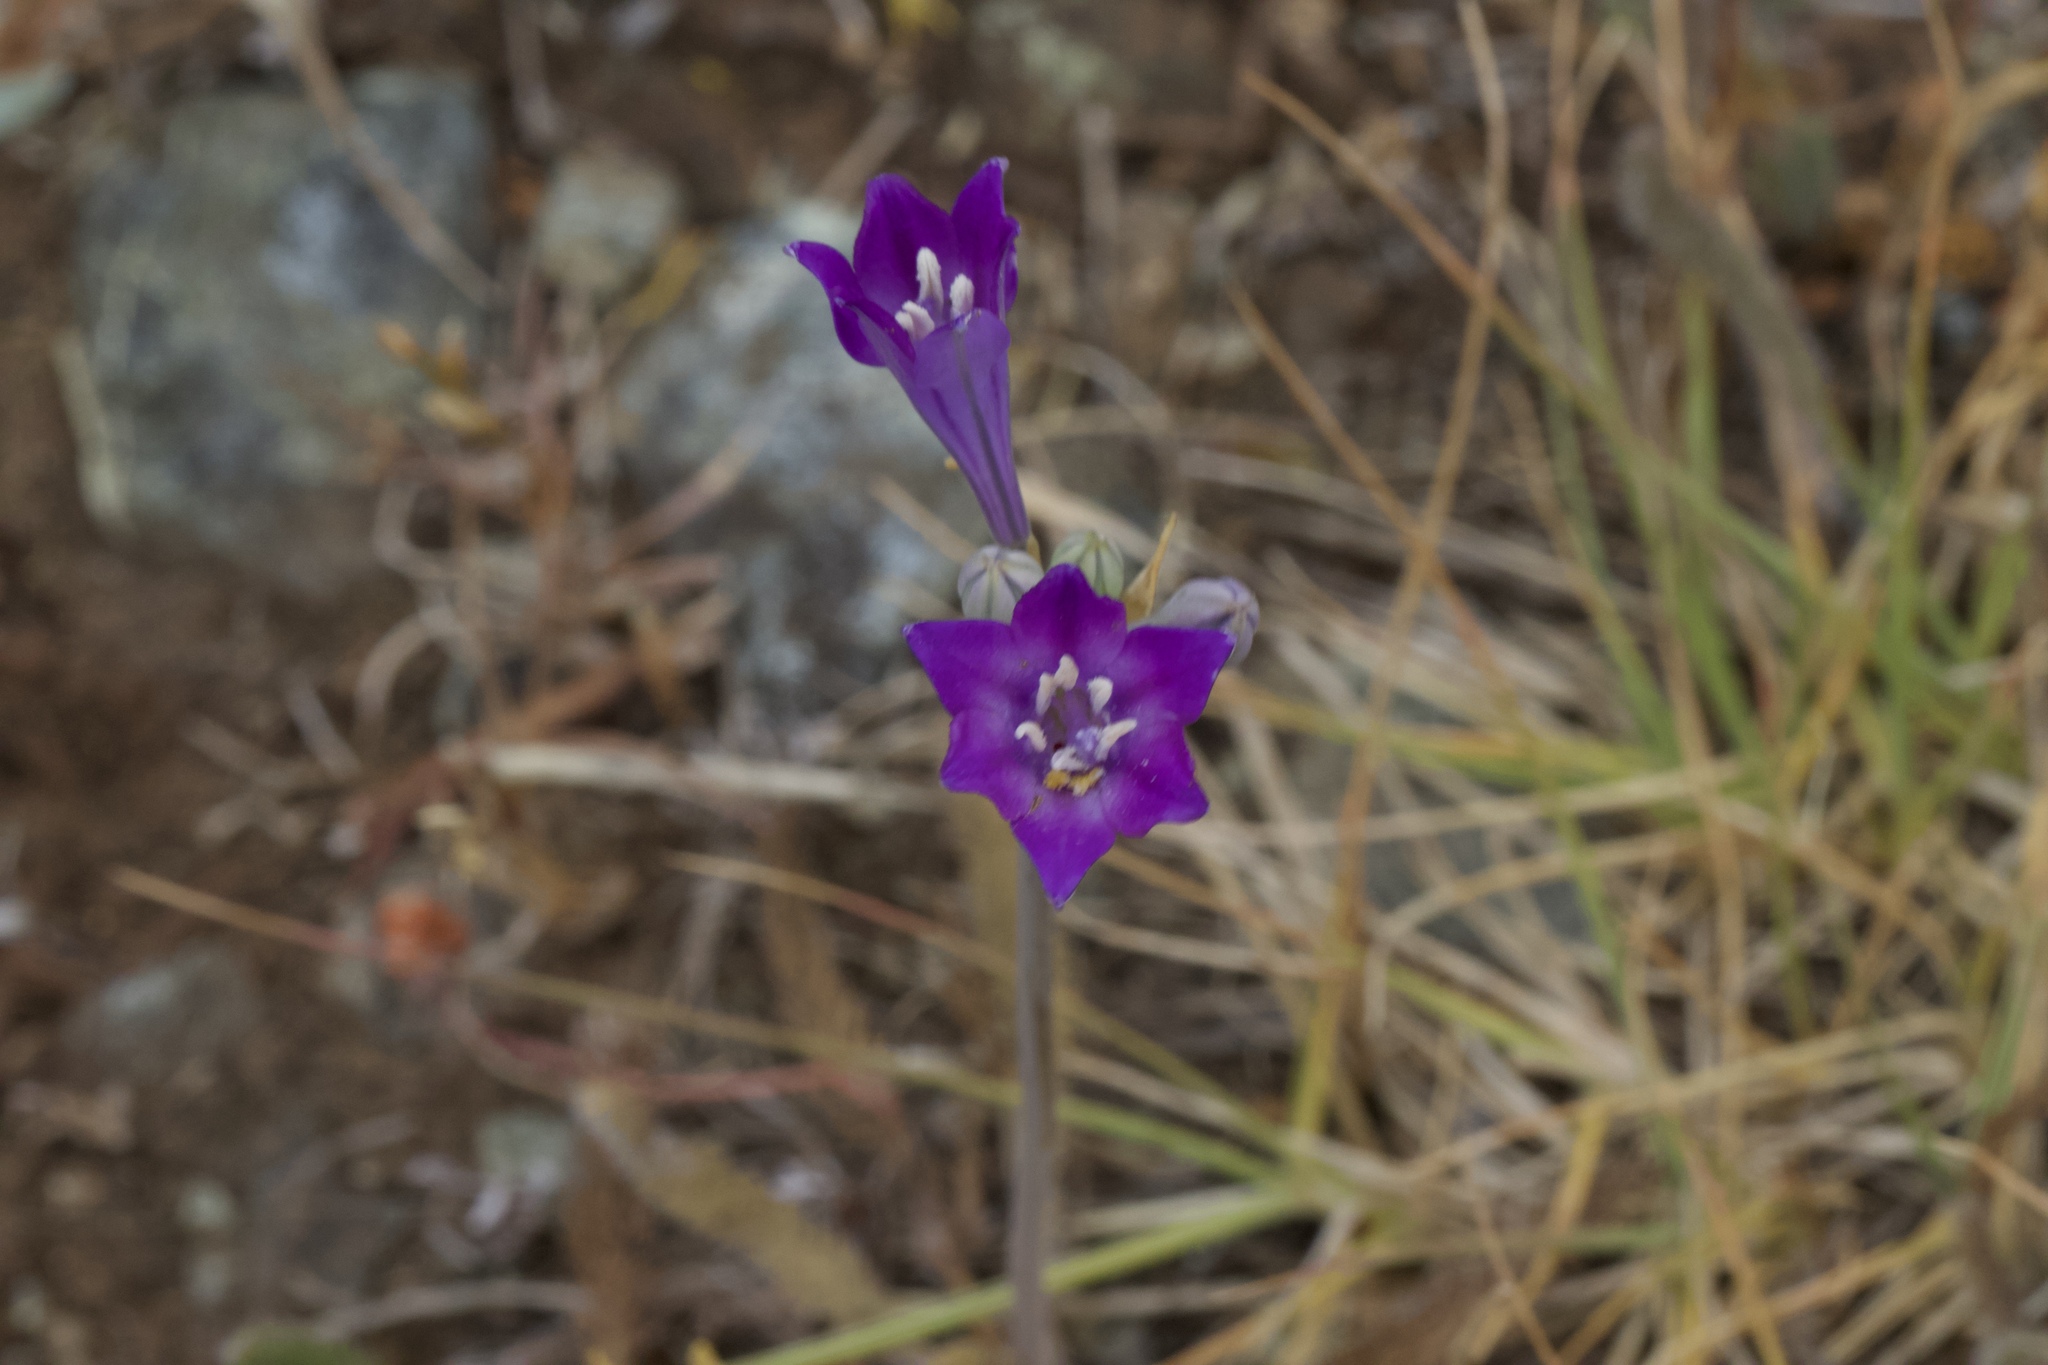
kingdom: Plantae
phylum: Tracheophyta
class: Liliopsida
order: Asparagales
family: Asparagaceae
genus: Triteleia
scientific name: Triteleia laxa
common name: Triplet-lily
